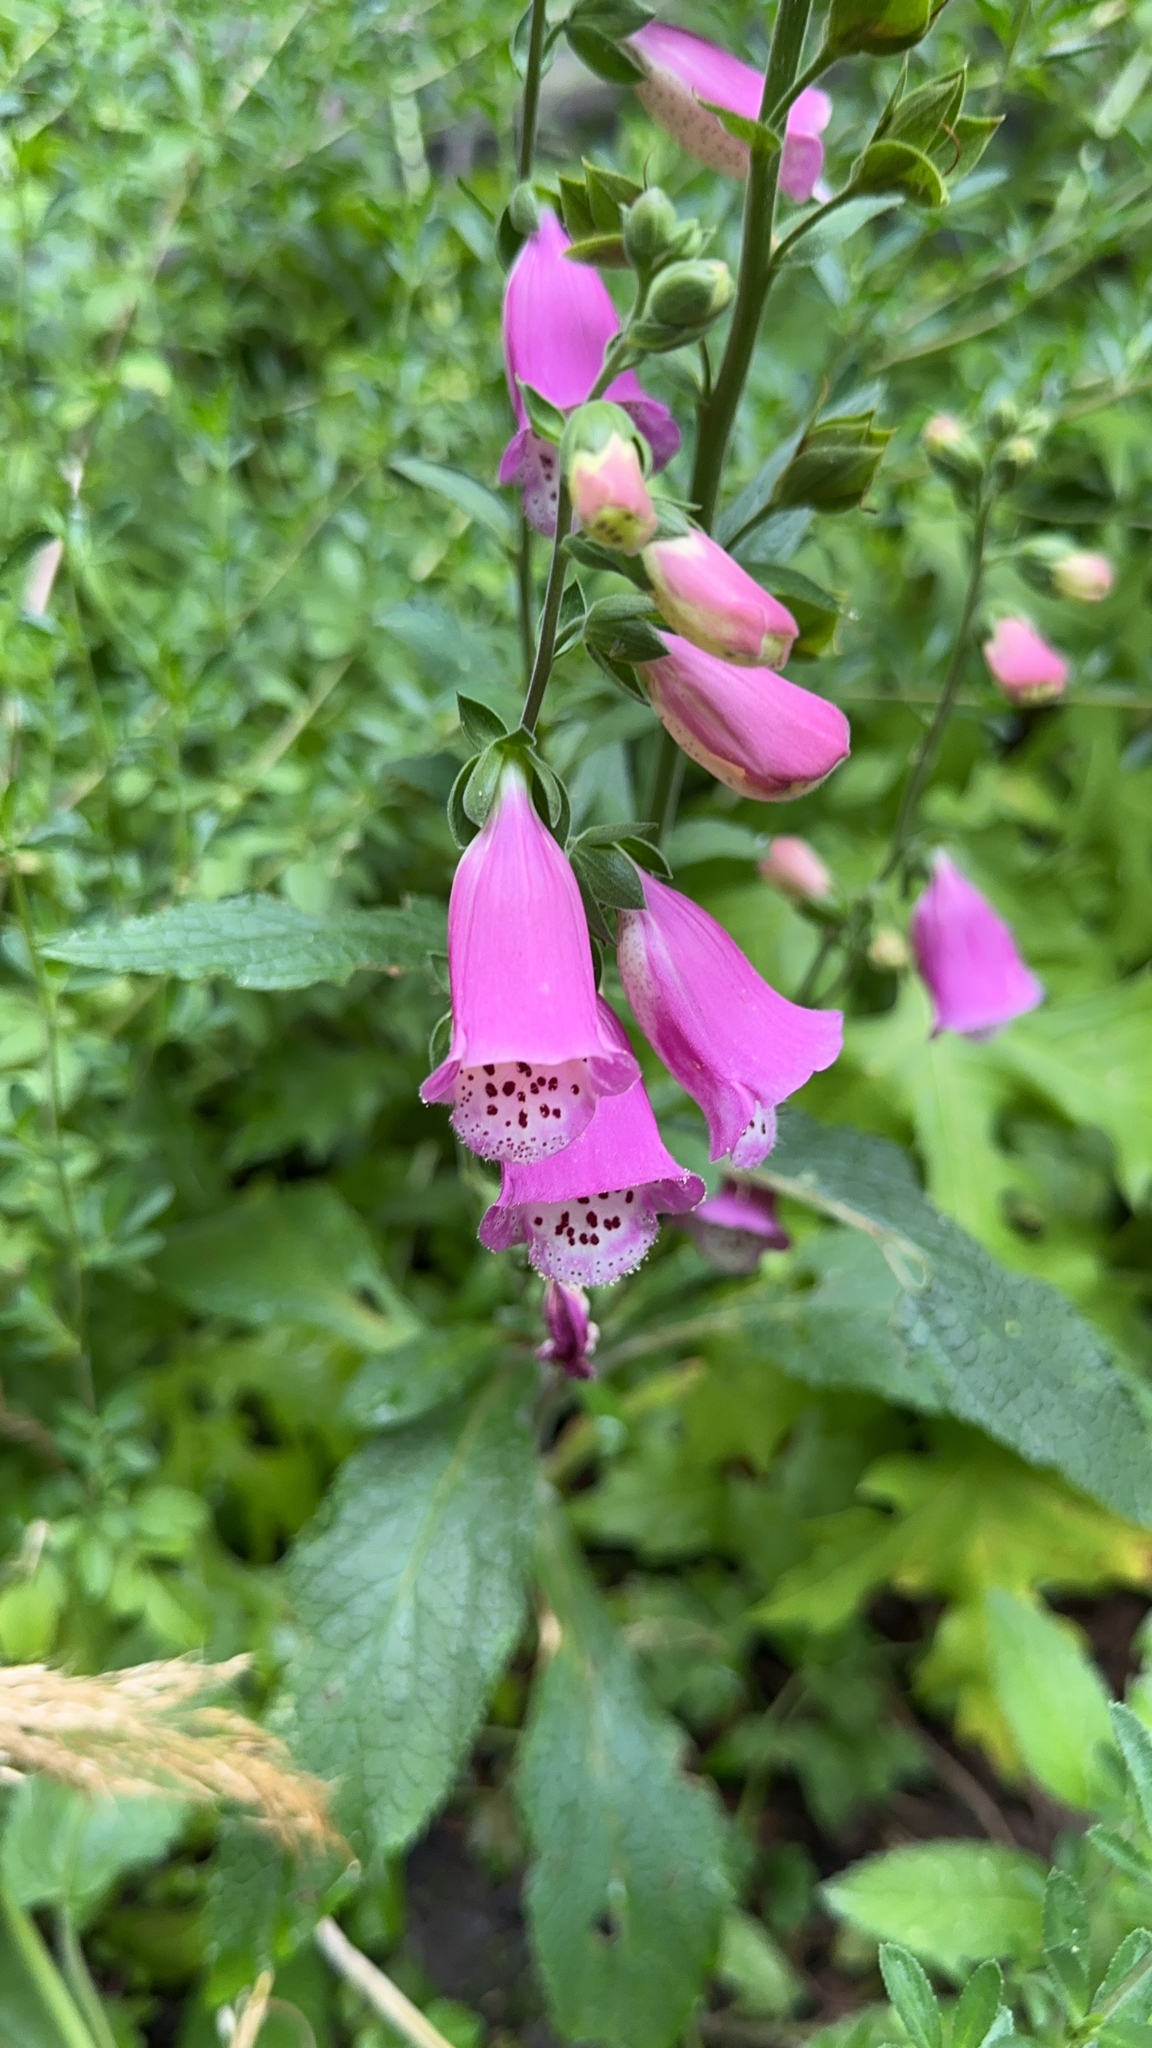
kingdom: Plantae
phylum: Tracheophyta
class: Magnoliopsida
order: Lamiales
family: Plantaginaceae
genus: Digitalis
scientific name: Digitalis purpurea
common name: Foxglove
